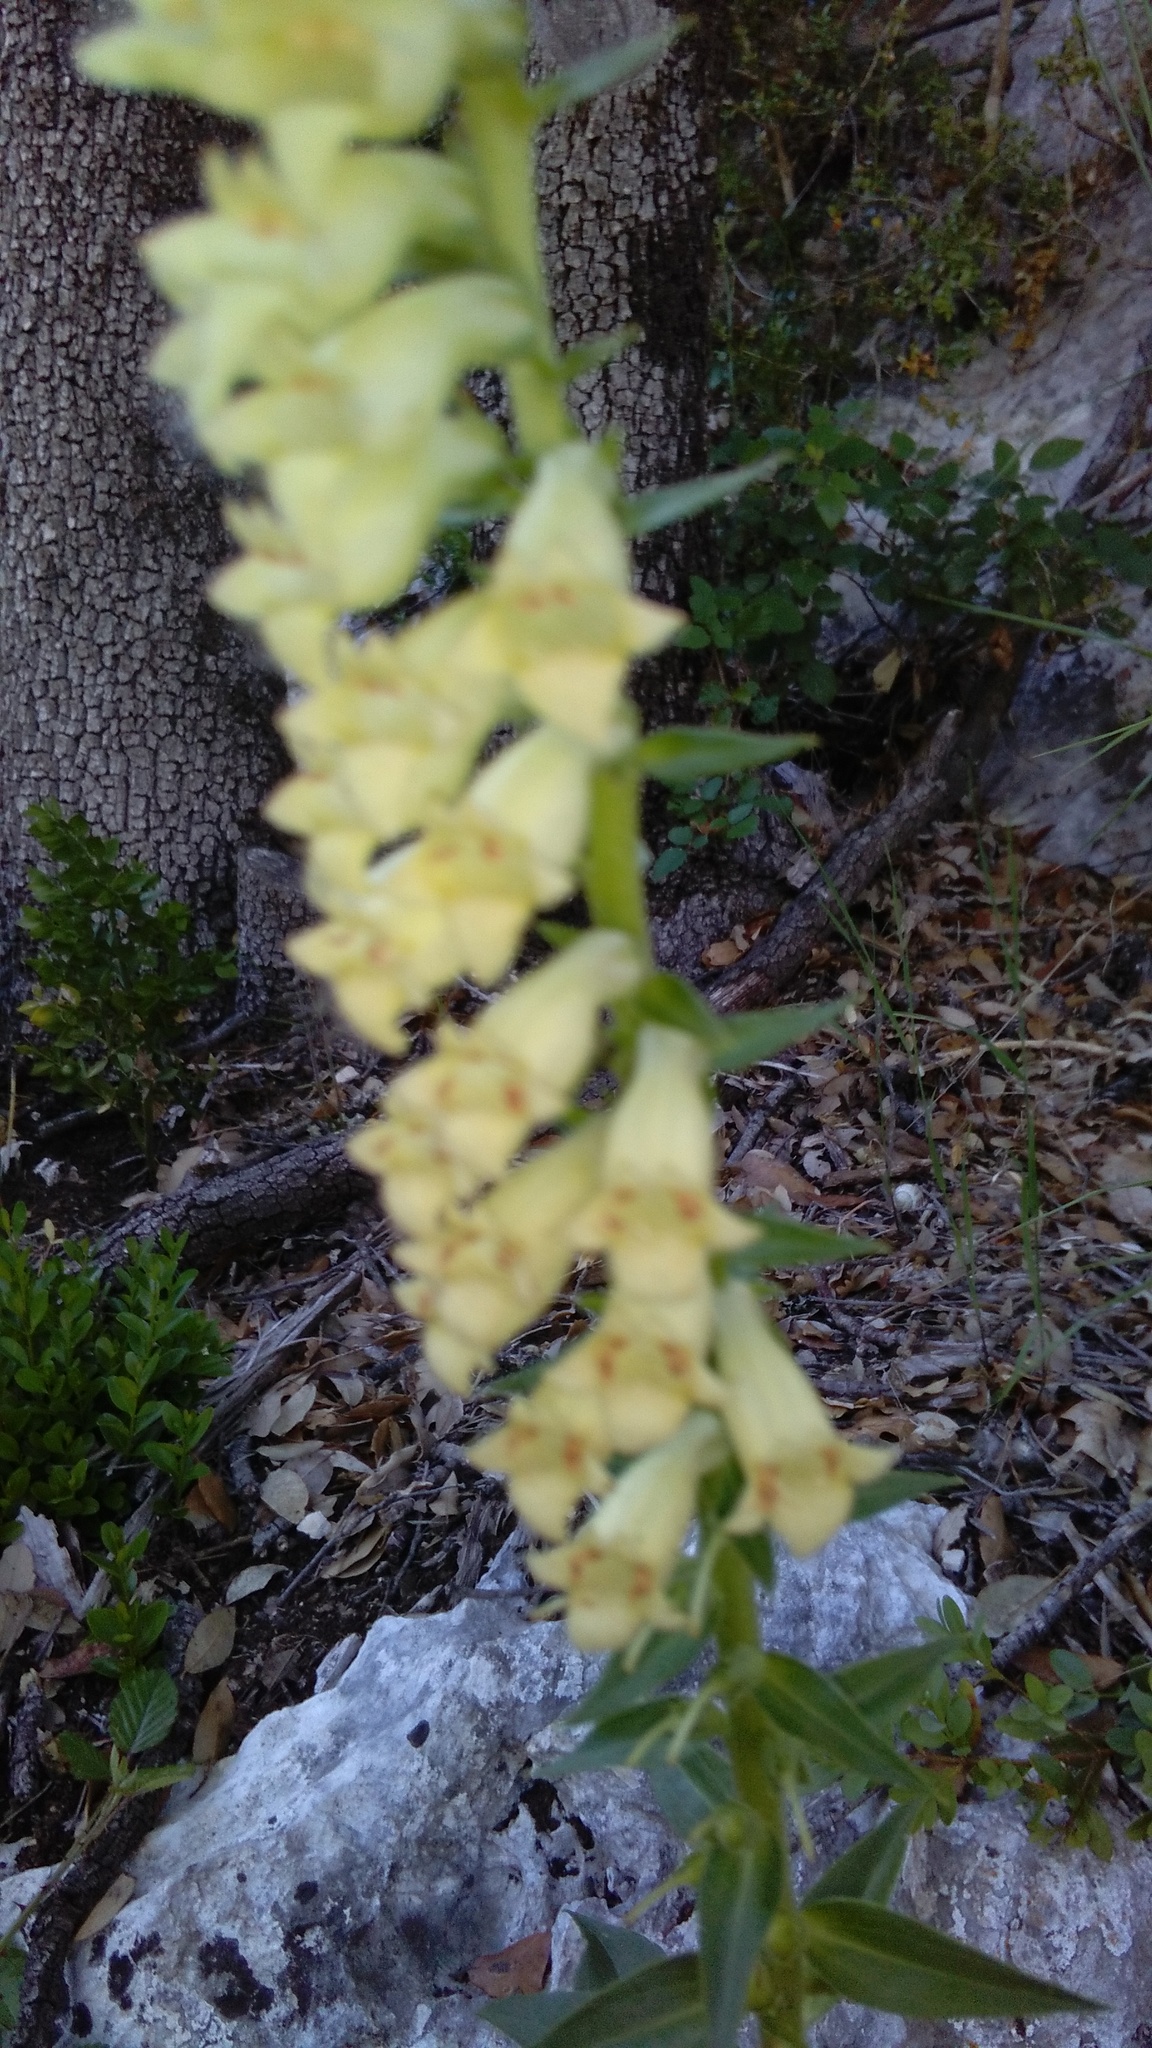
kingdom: Plantae
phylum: Tracheophyta
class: Magnoliopsida
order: Lamiales
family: Plantaginaceae
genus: Digitalis
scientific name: Digitalis lutea
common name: Straw foxglove
